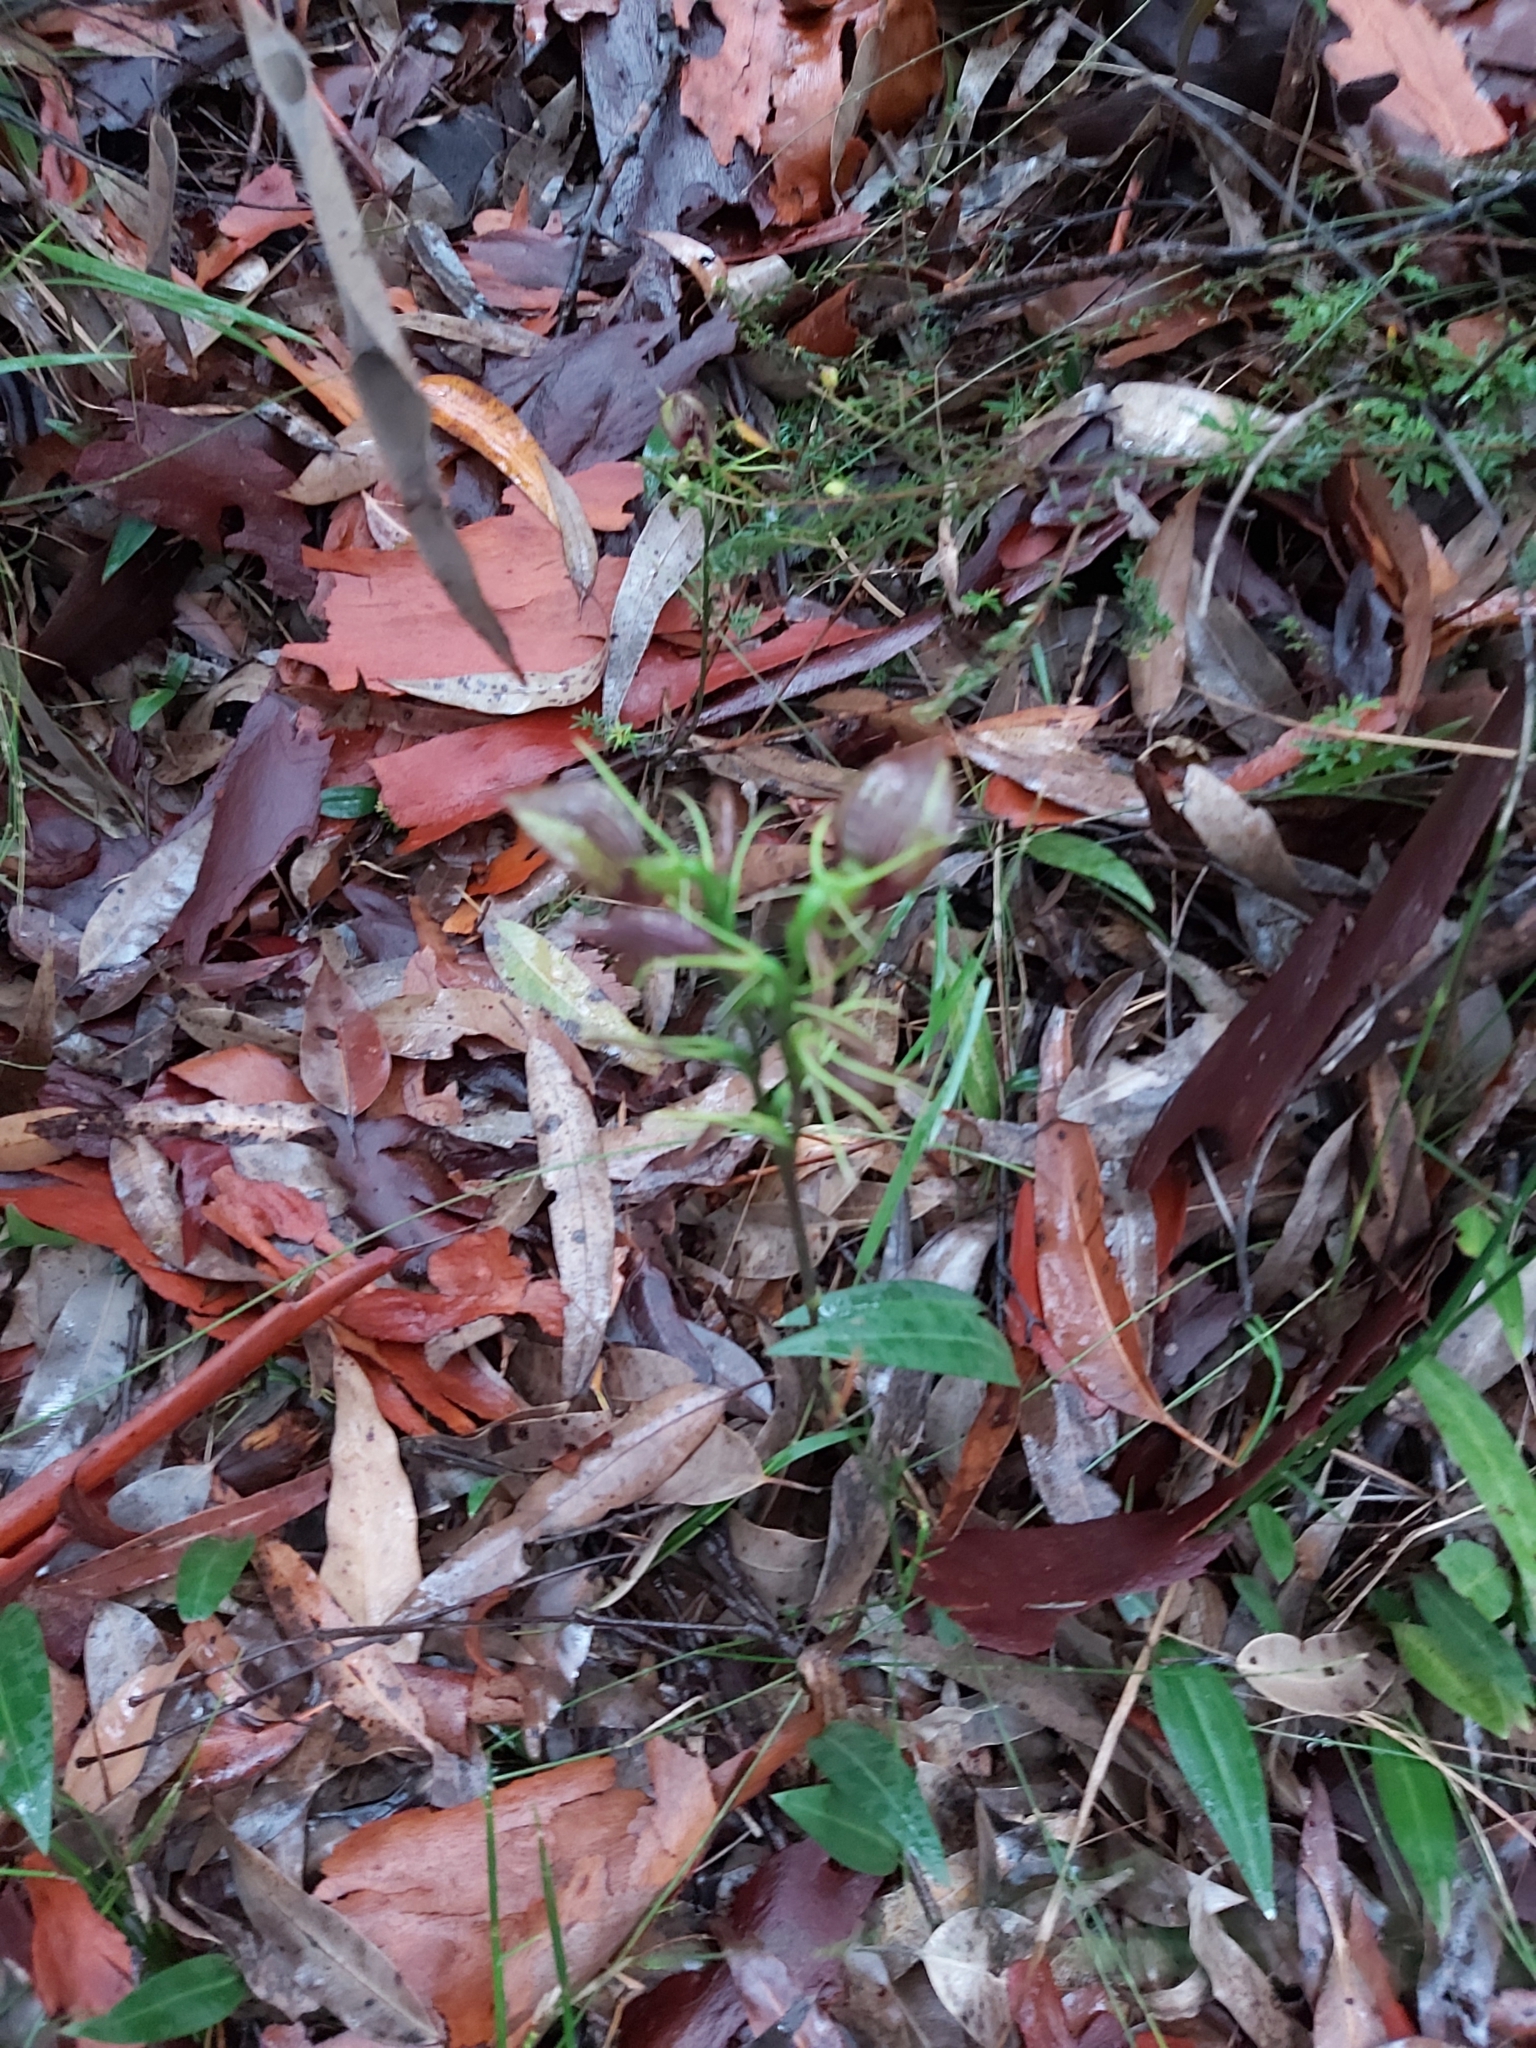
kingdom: Plantae
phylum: Tracheophyta
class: Liliopsida
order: Asparagales
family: Orchidaceae
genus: Cryptostylis
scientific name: Cryptostylis erecta
